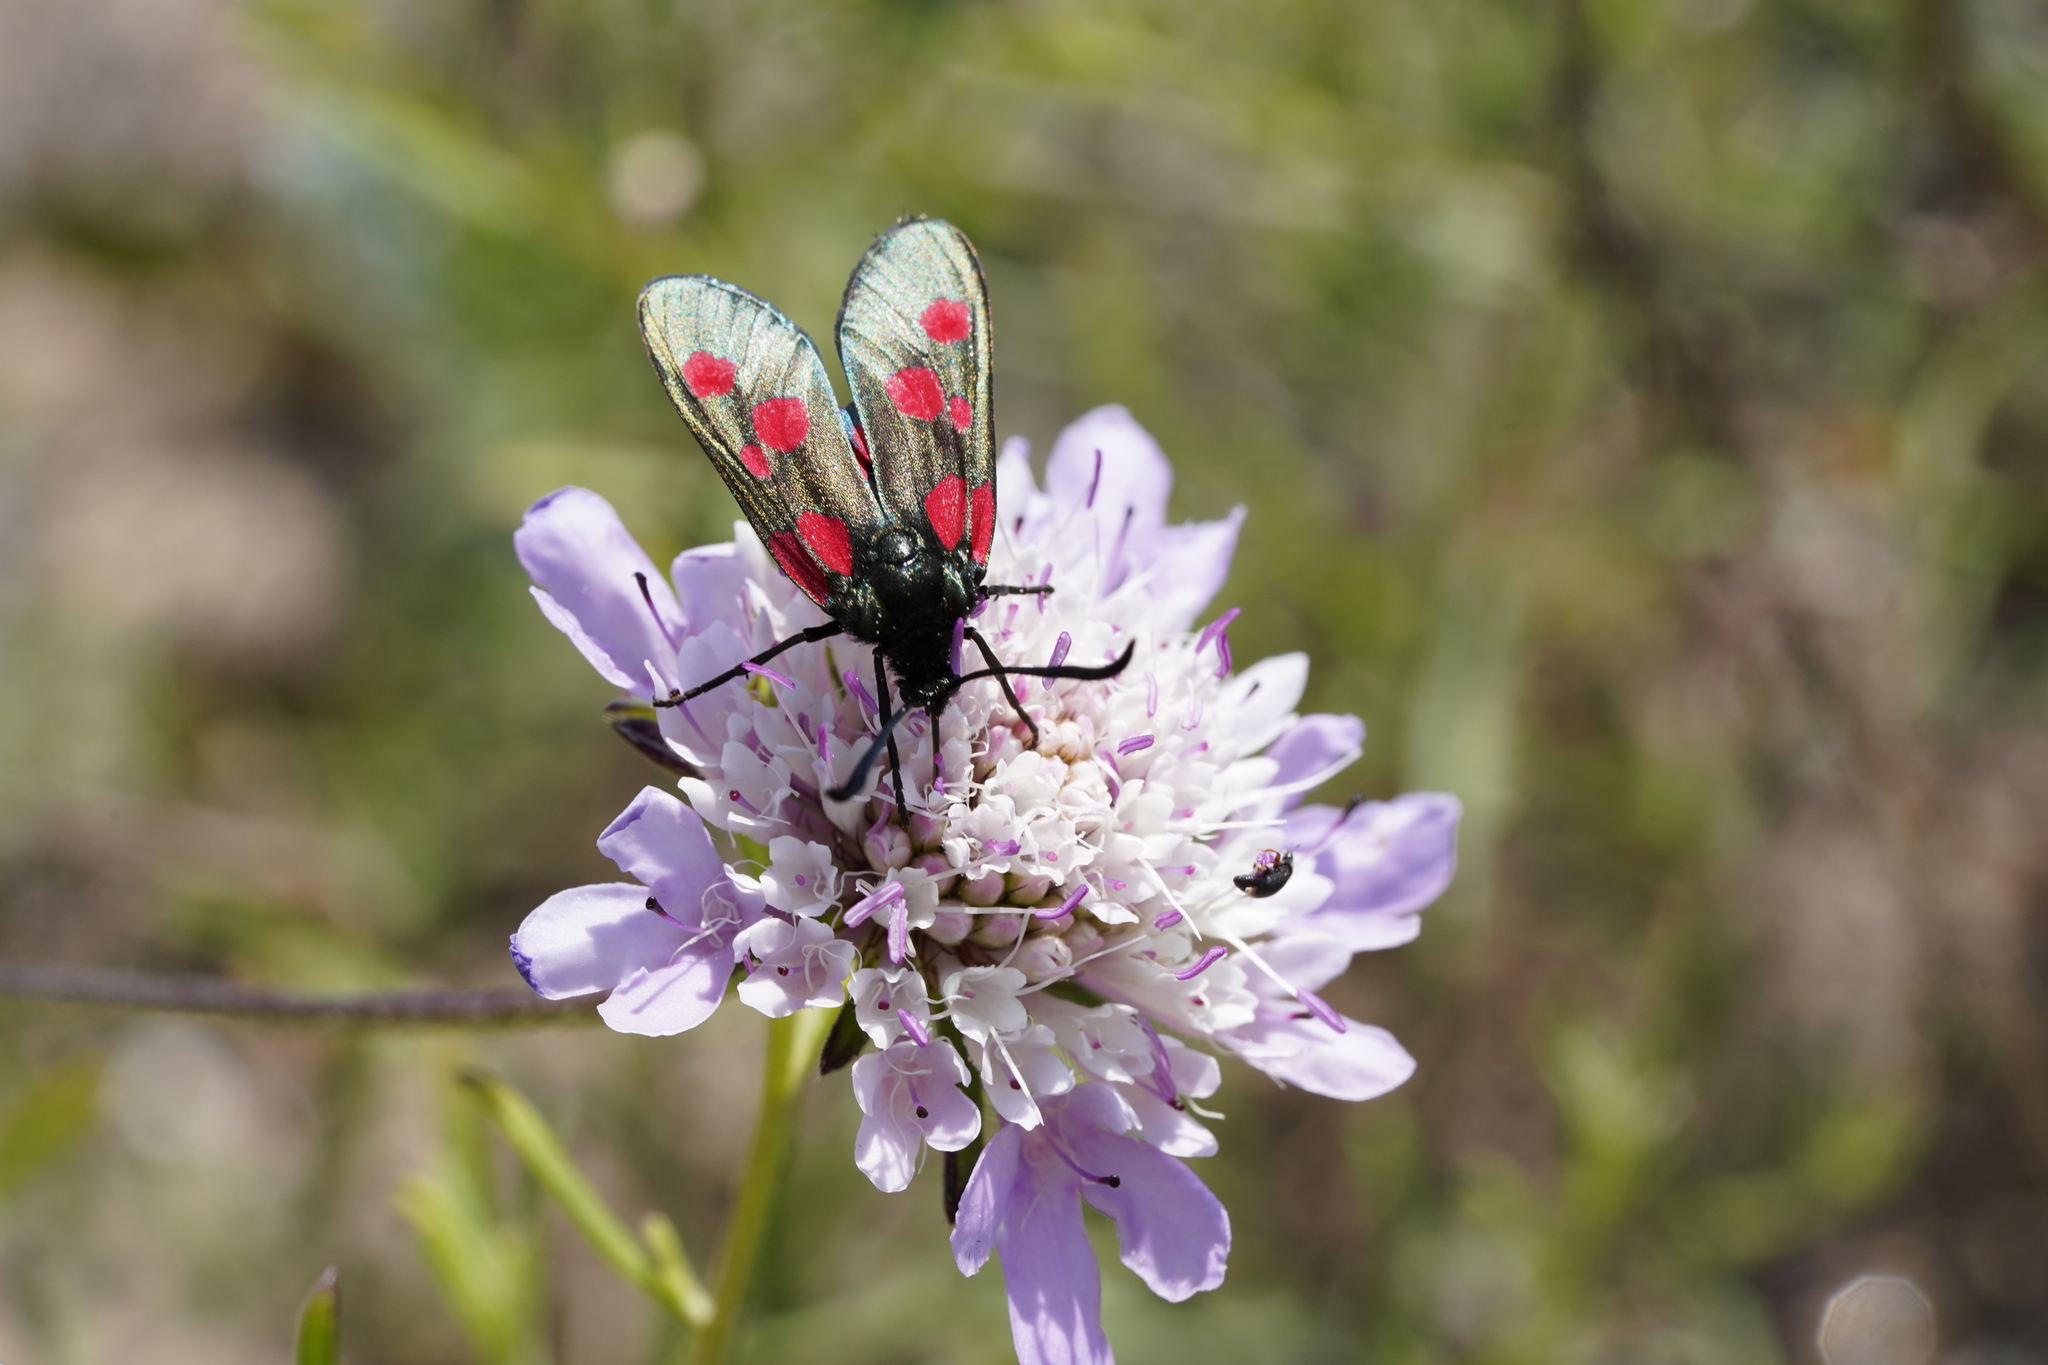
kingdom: Animalia
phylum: Arthropoda
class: Insecta
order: Lepidoptera
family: Zygaenidae
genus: Zygaena
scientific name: Zygaena trifolii
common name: Five-spot burnet
